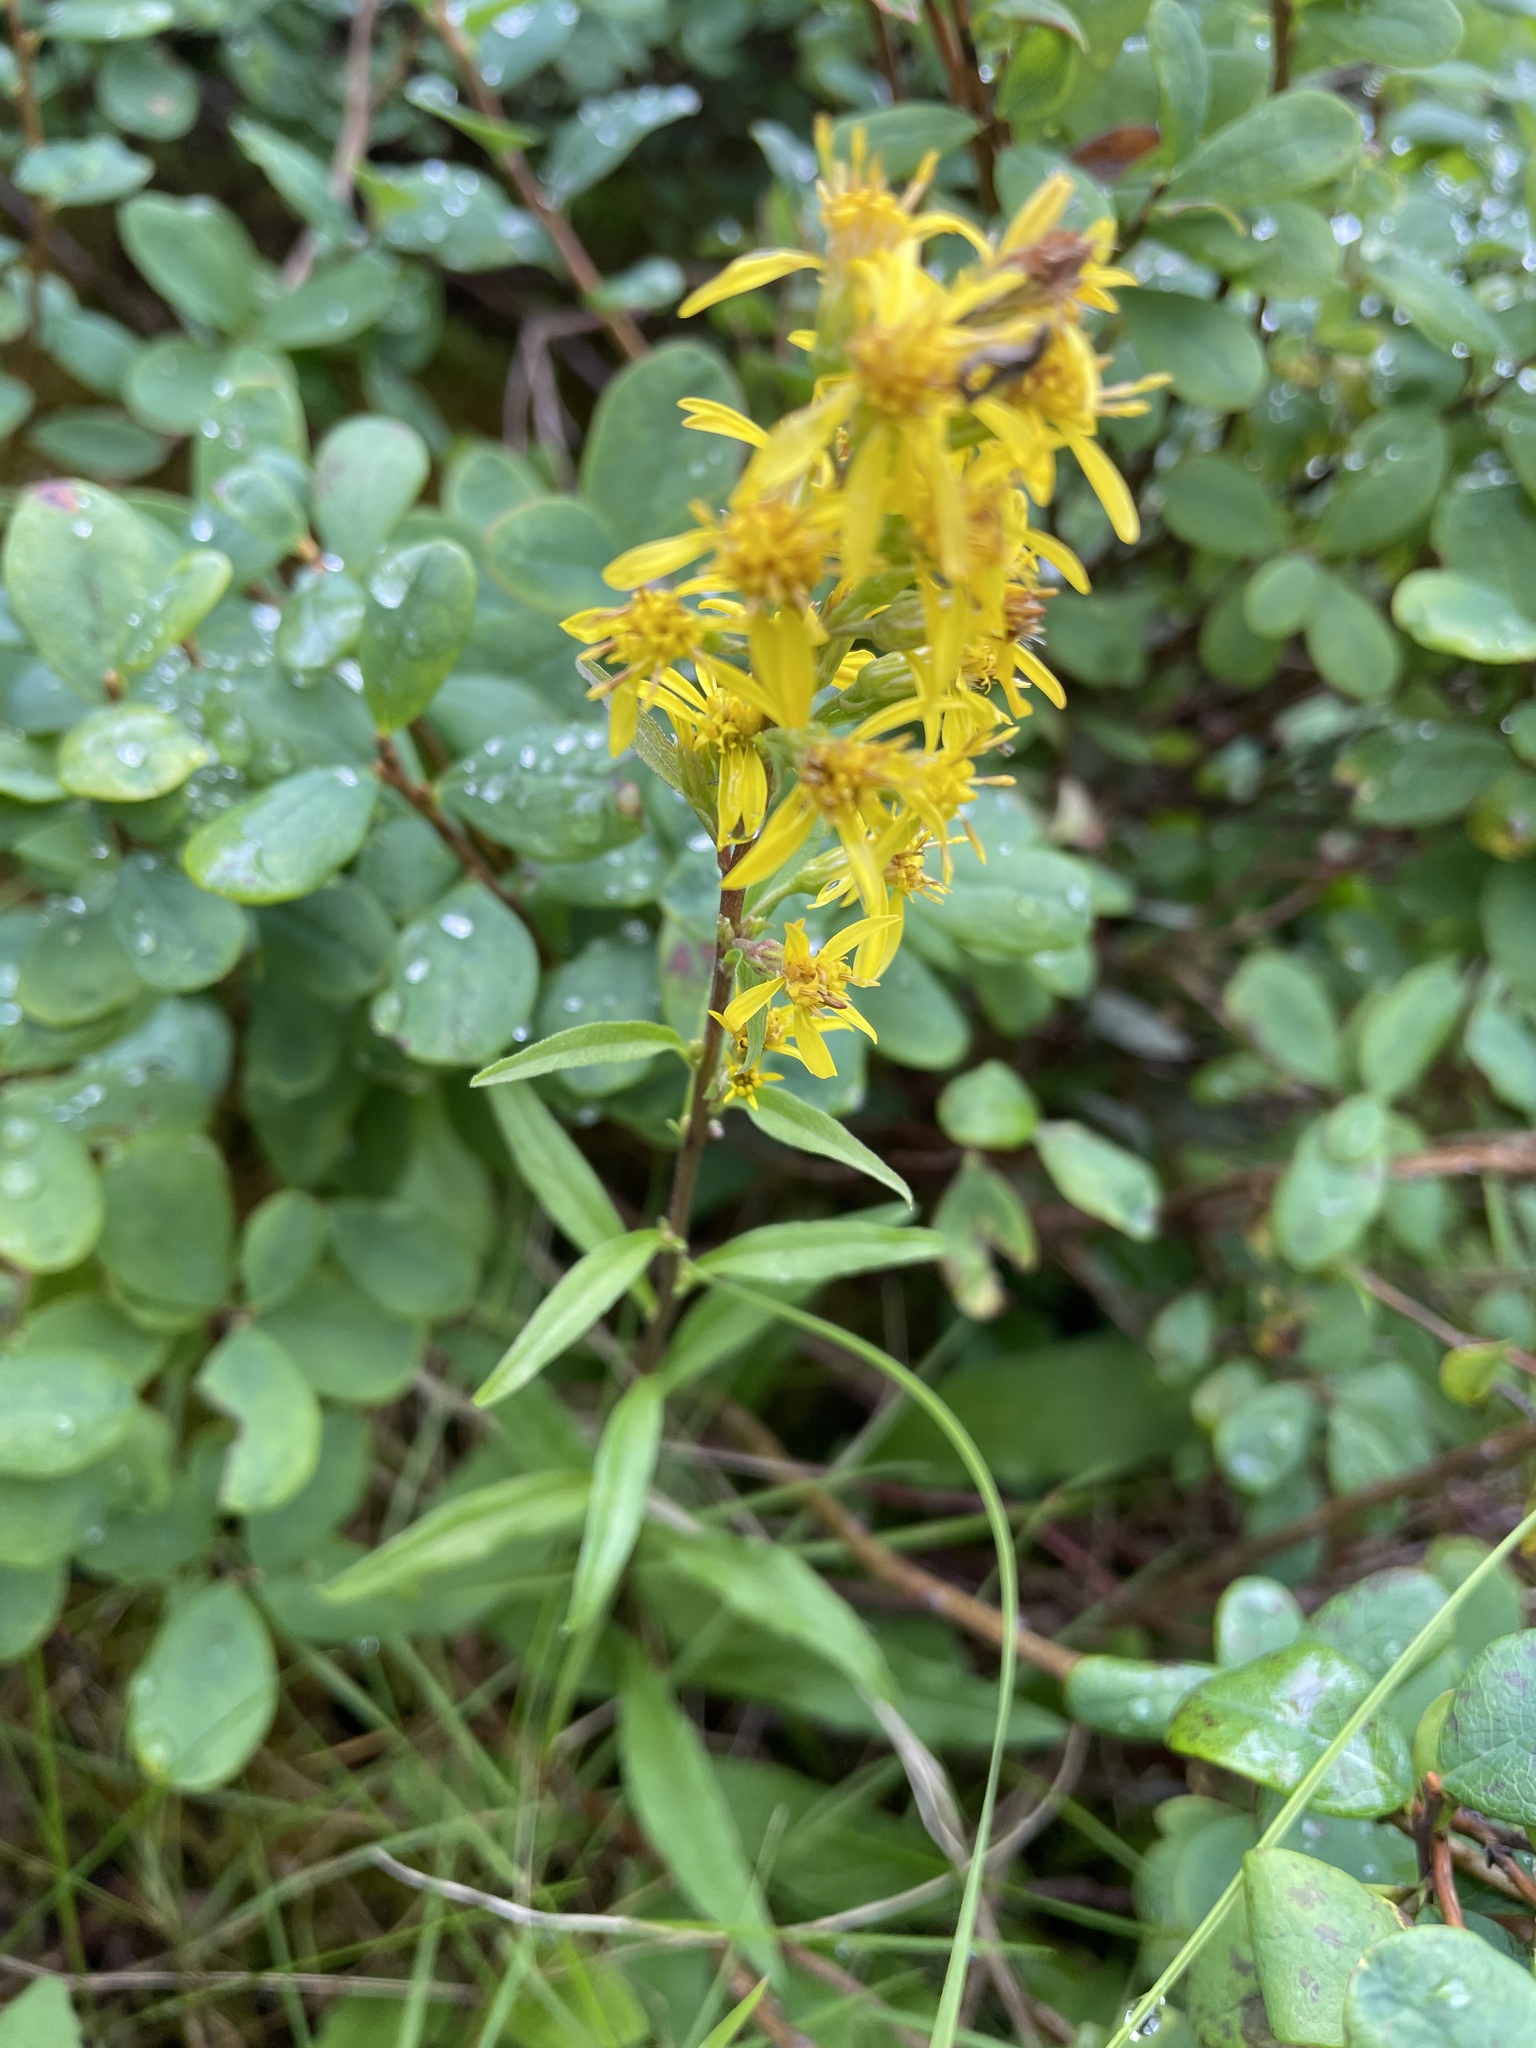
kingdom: Plantae
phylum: Tracheophyta
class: Magnoliopsida
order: Asterales
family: Asteraceae
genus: Solidago
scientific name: Solidago virgaurea
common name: Goldenrod
